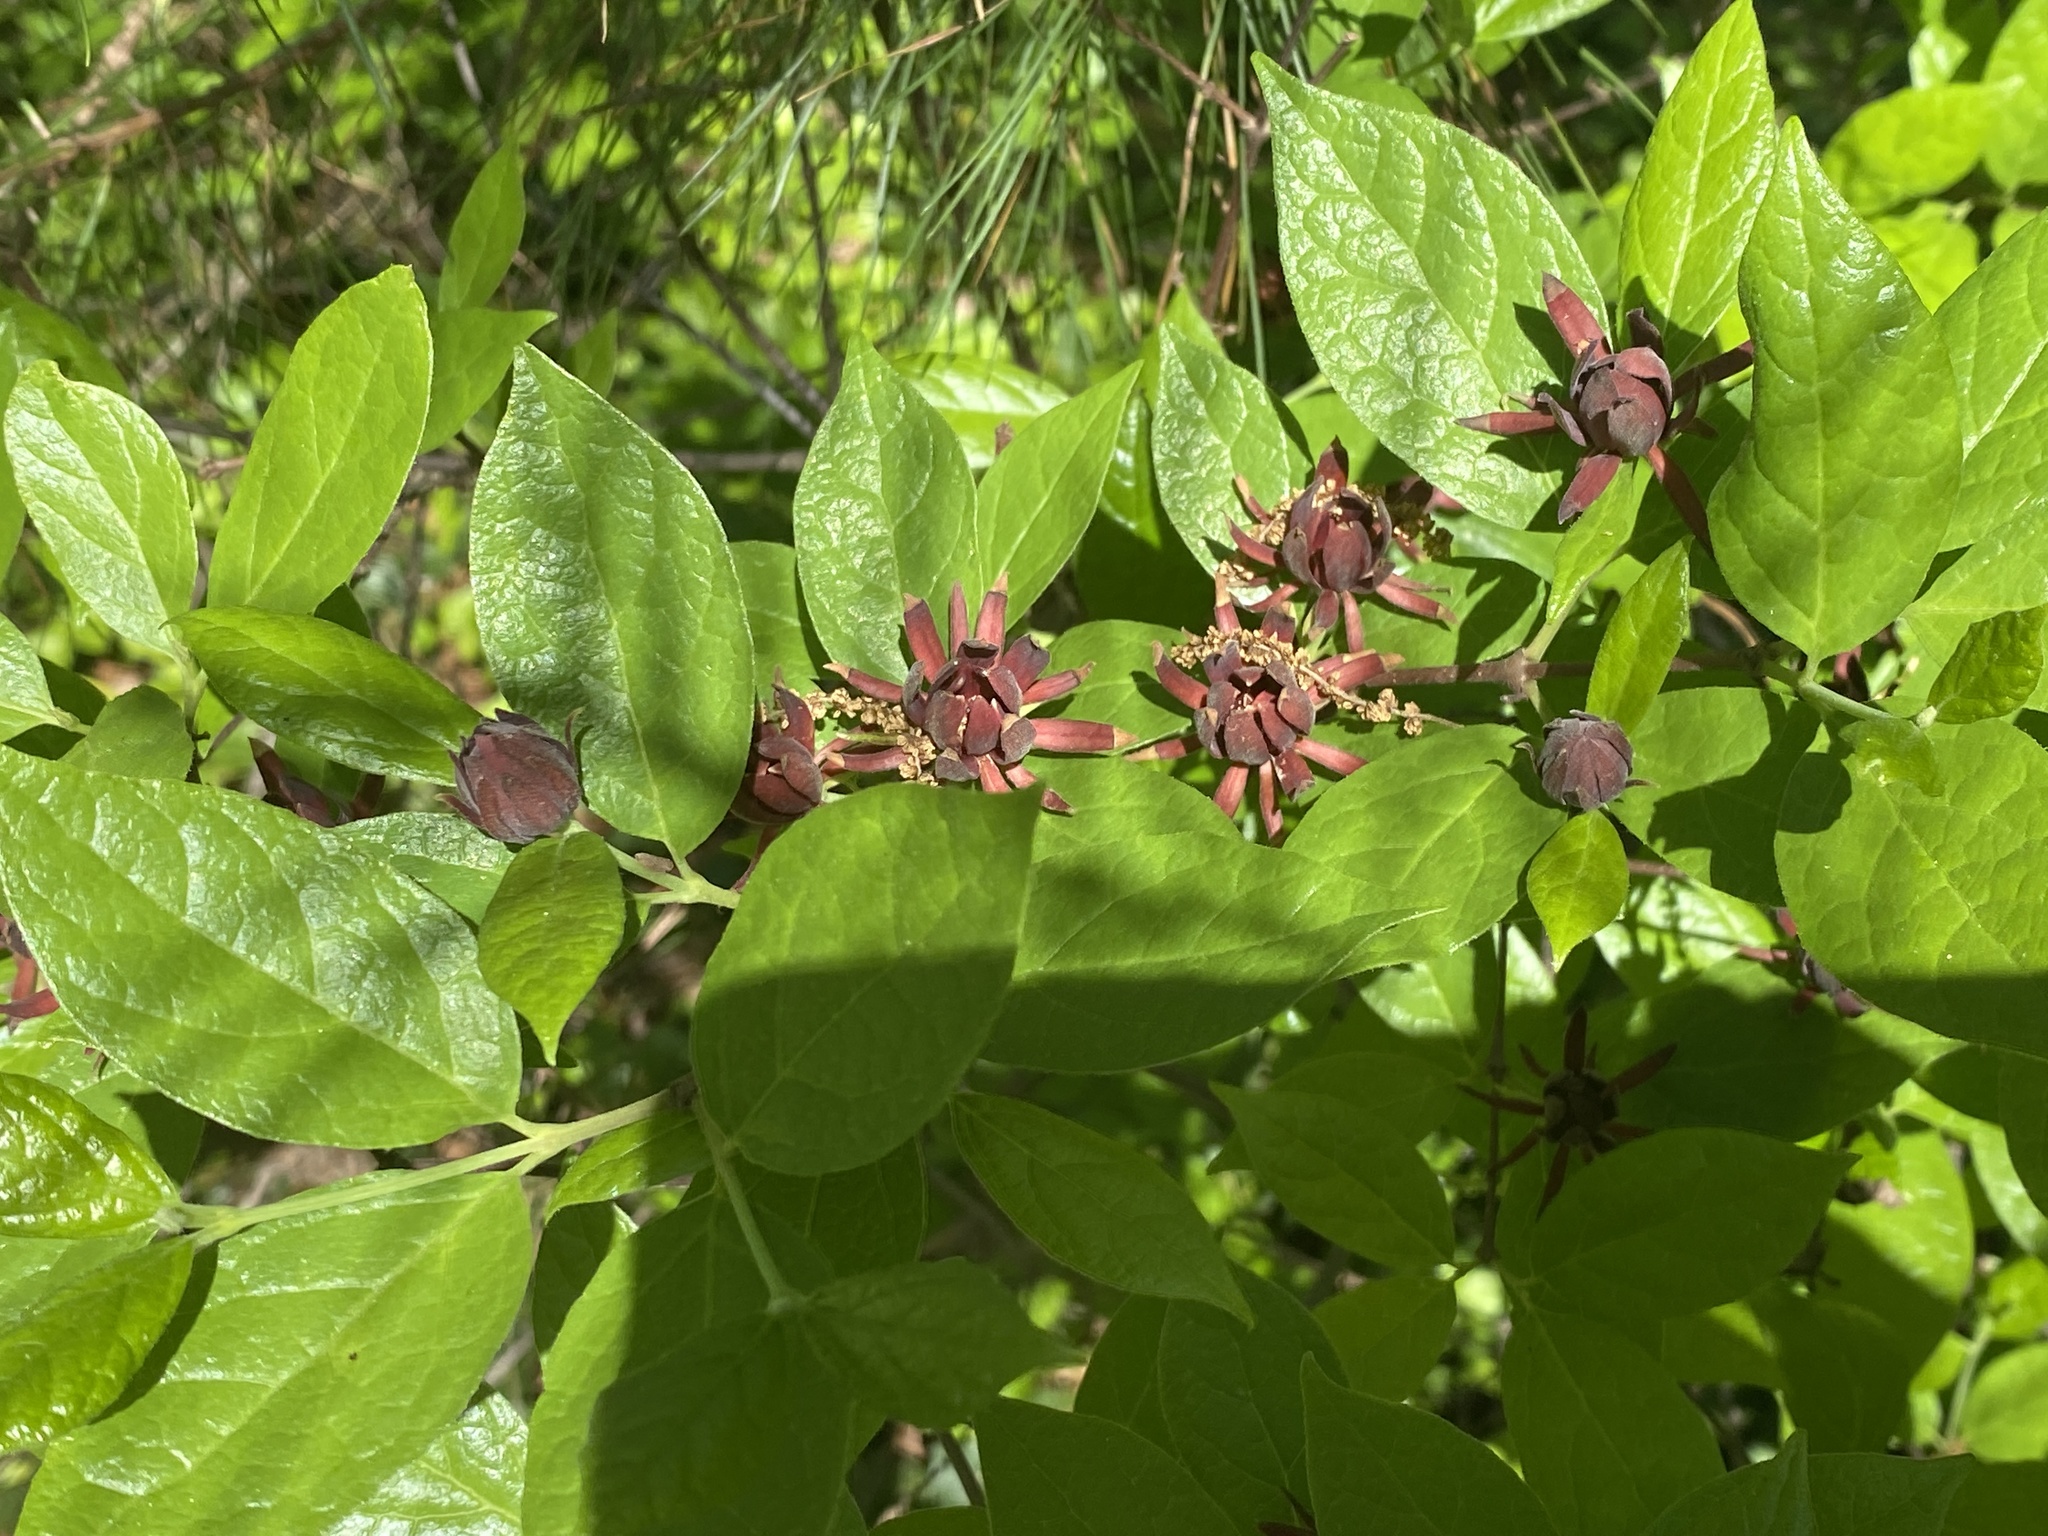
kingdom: Plantae
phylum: Tracheophyta
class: Magnoliopsida
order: Laurales
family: Calycanthaceae
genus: Calycanthus
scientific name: Calycanthus floridus
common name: Carolina-allspice
